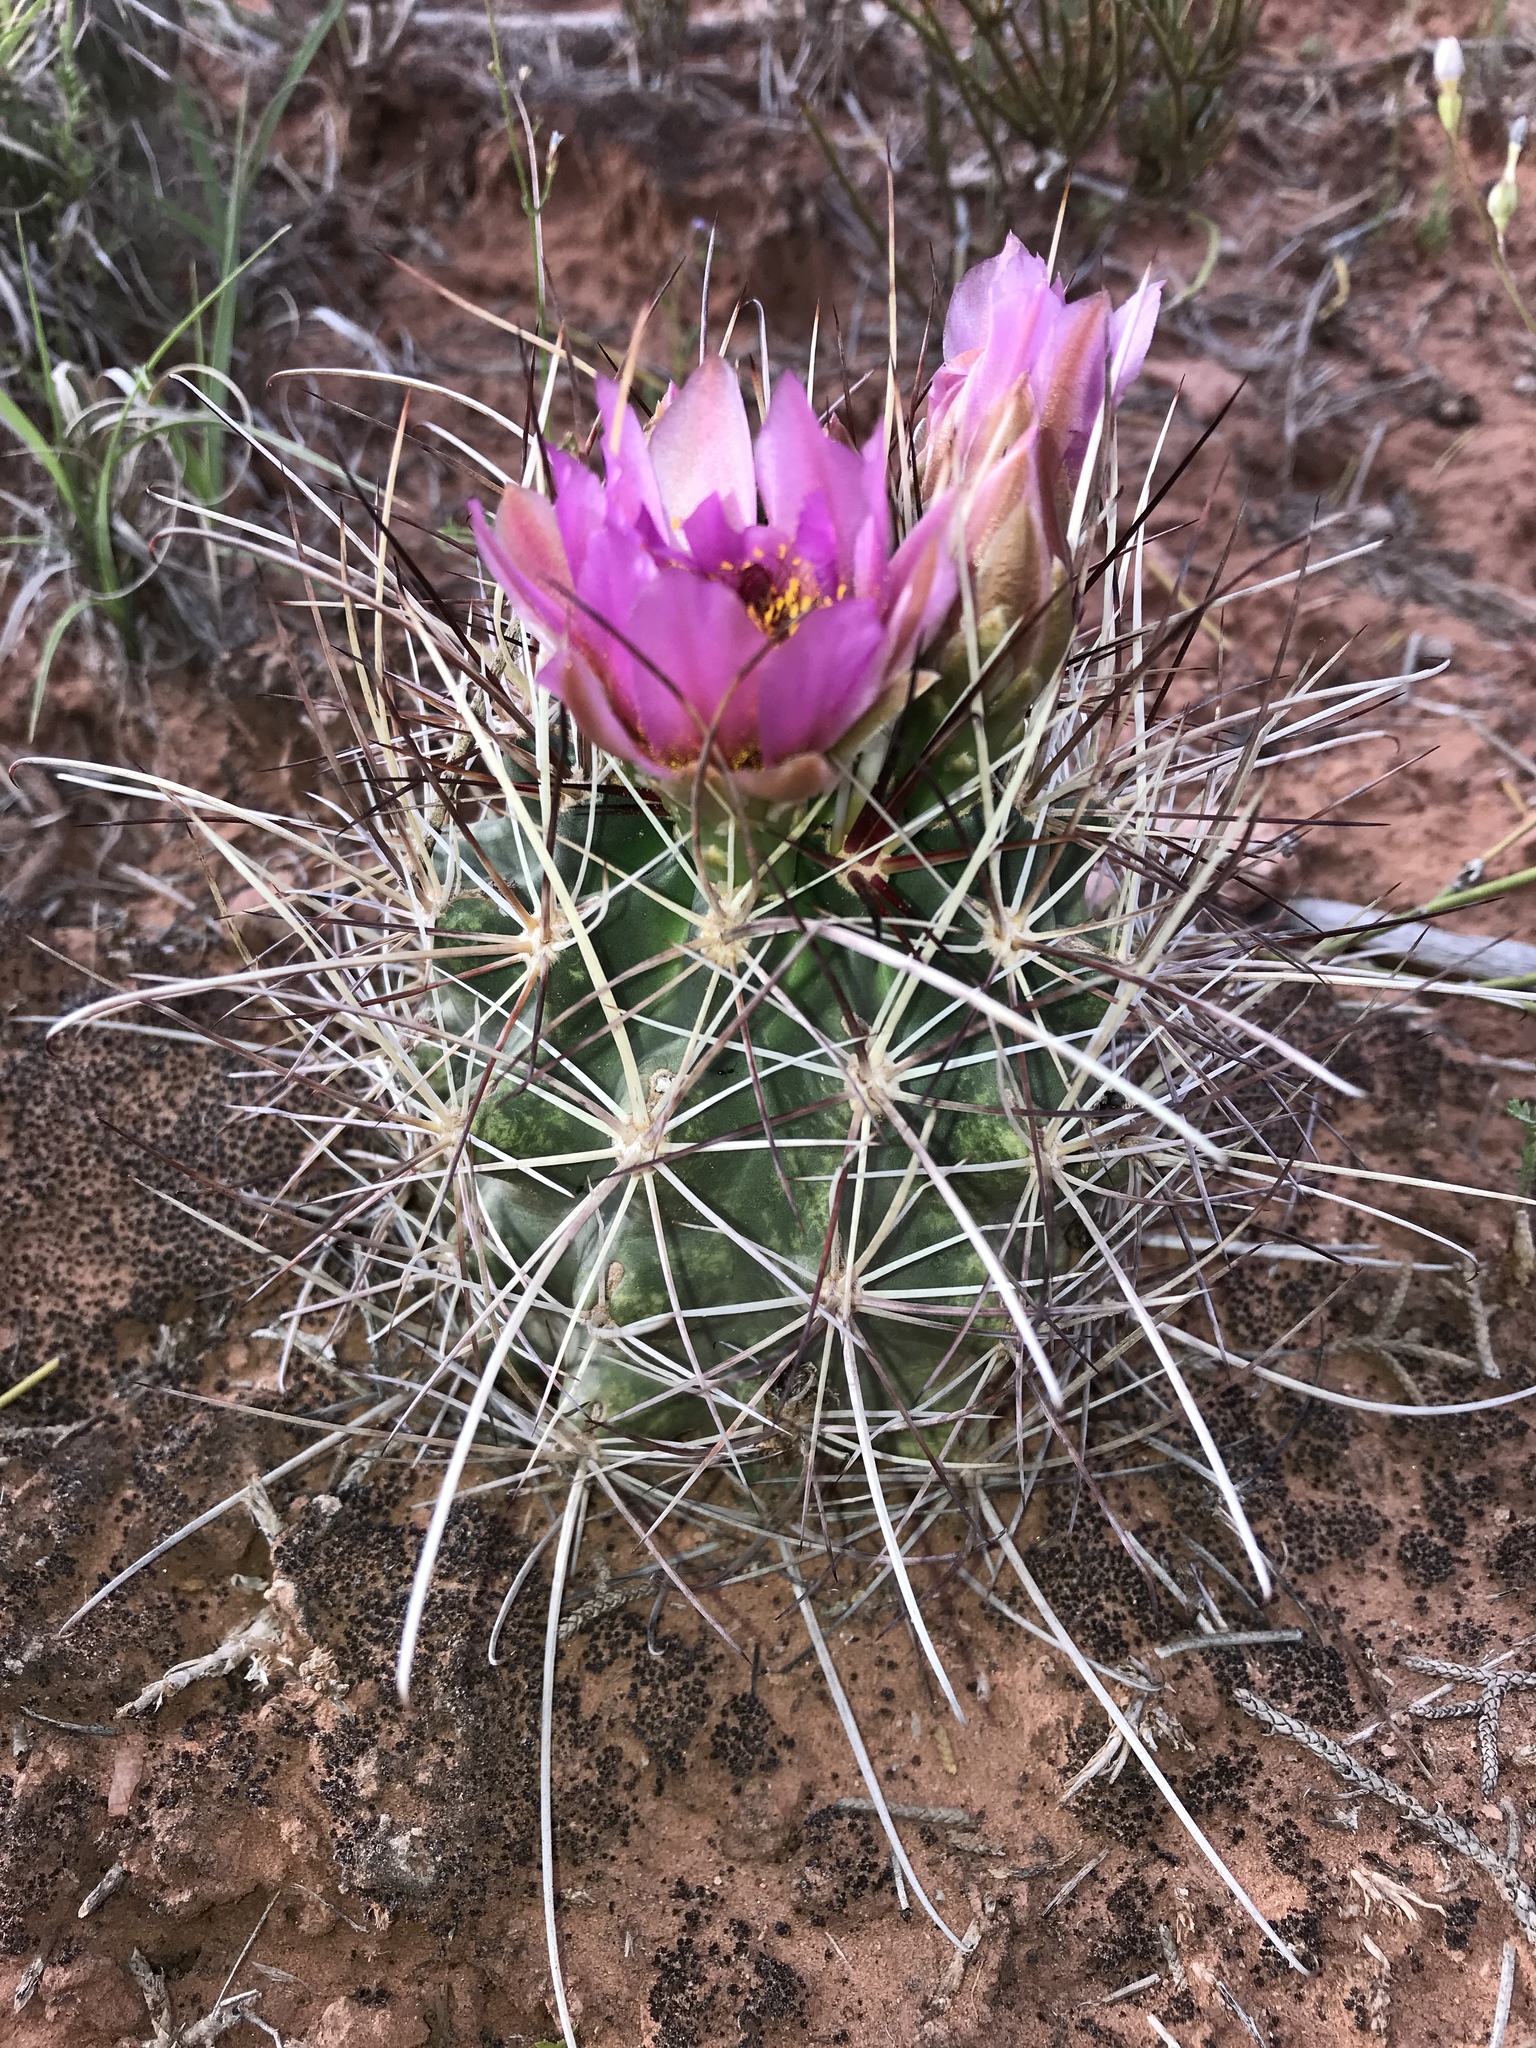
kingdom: Plantae
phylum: Tracheophyta
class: Magnoliopsida
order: Caryophyllales
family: Cactaceae
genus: Sclerocactus
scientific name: Sclerocactus parviflorus
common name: Small-flower fishhook cactus
